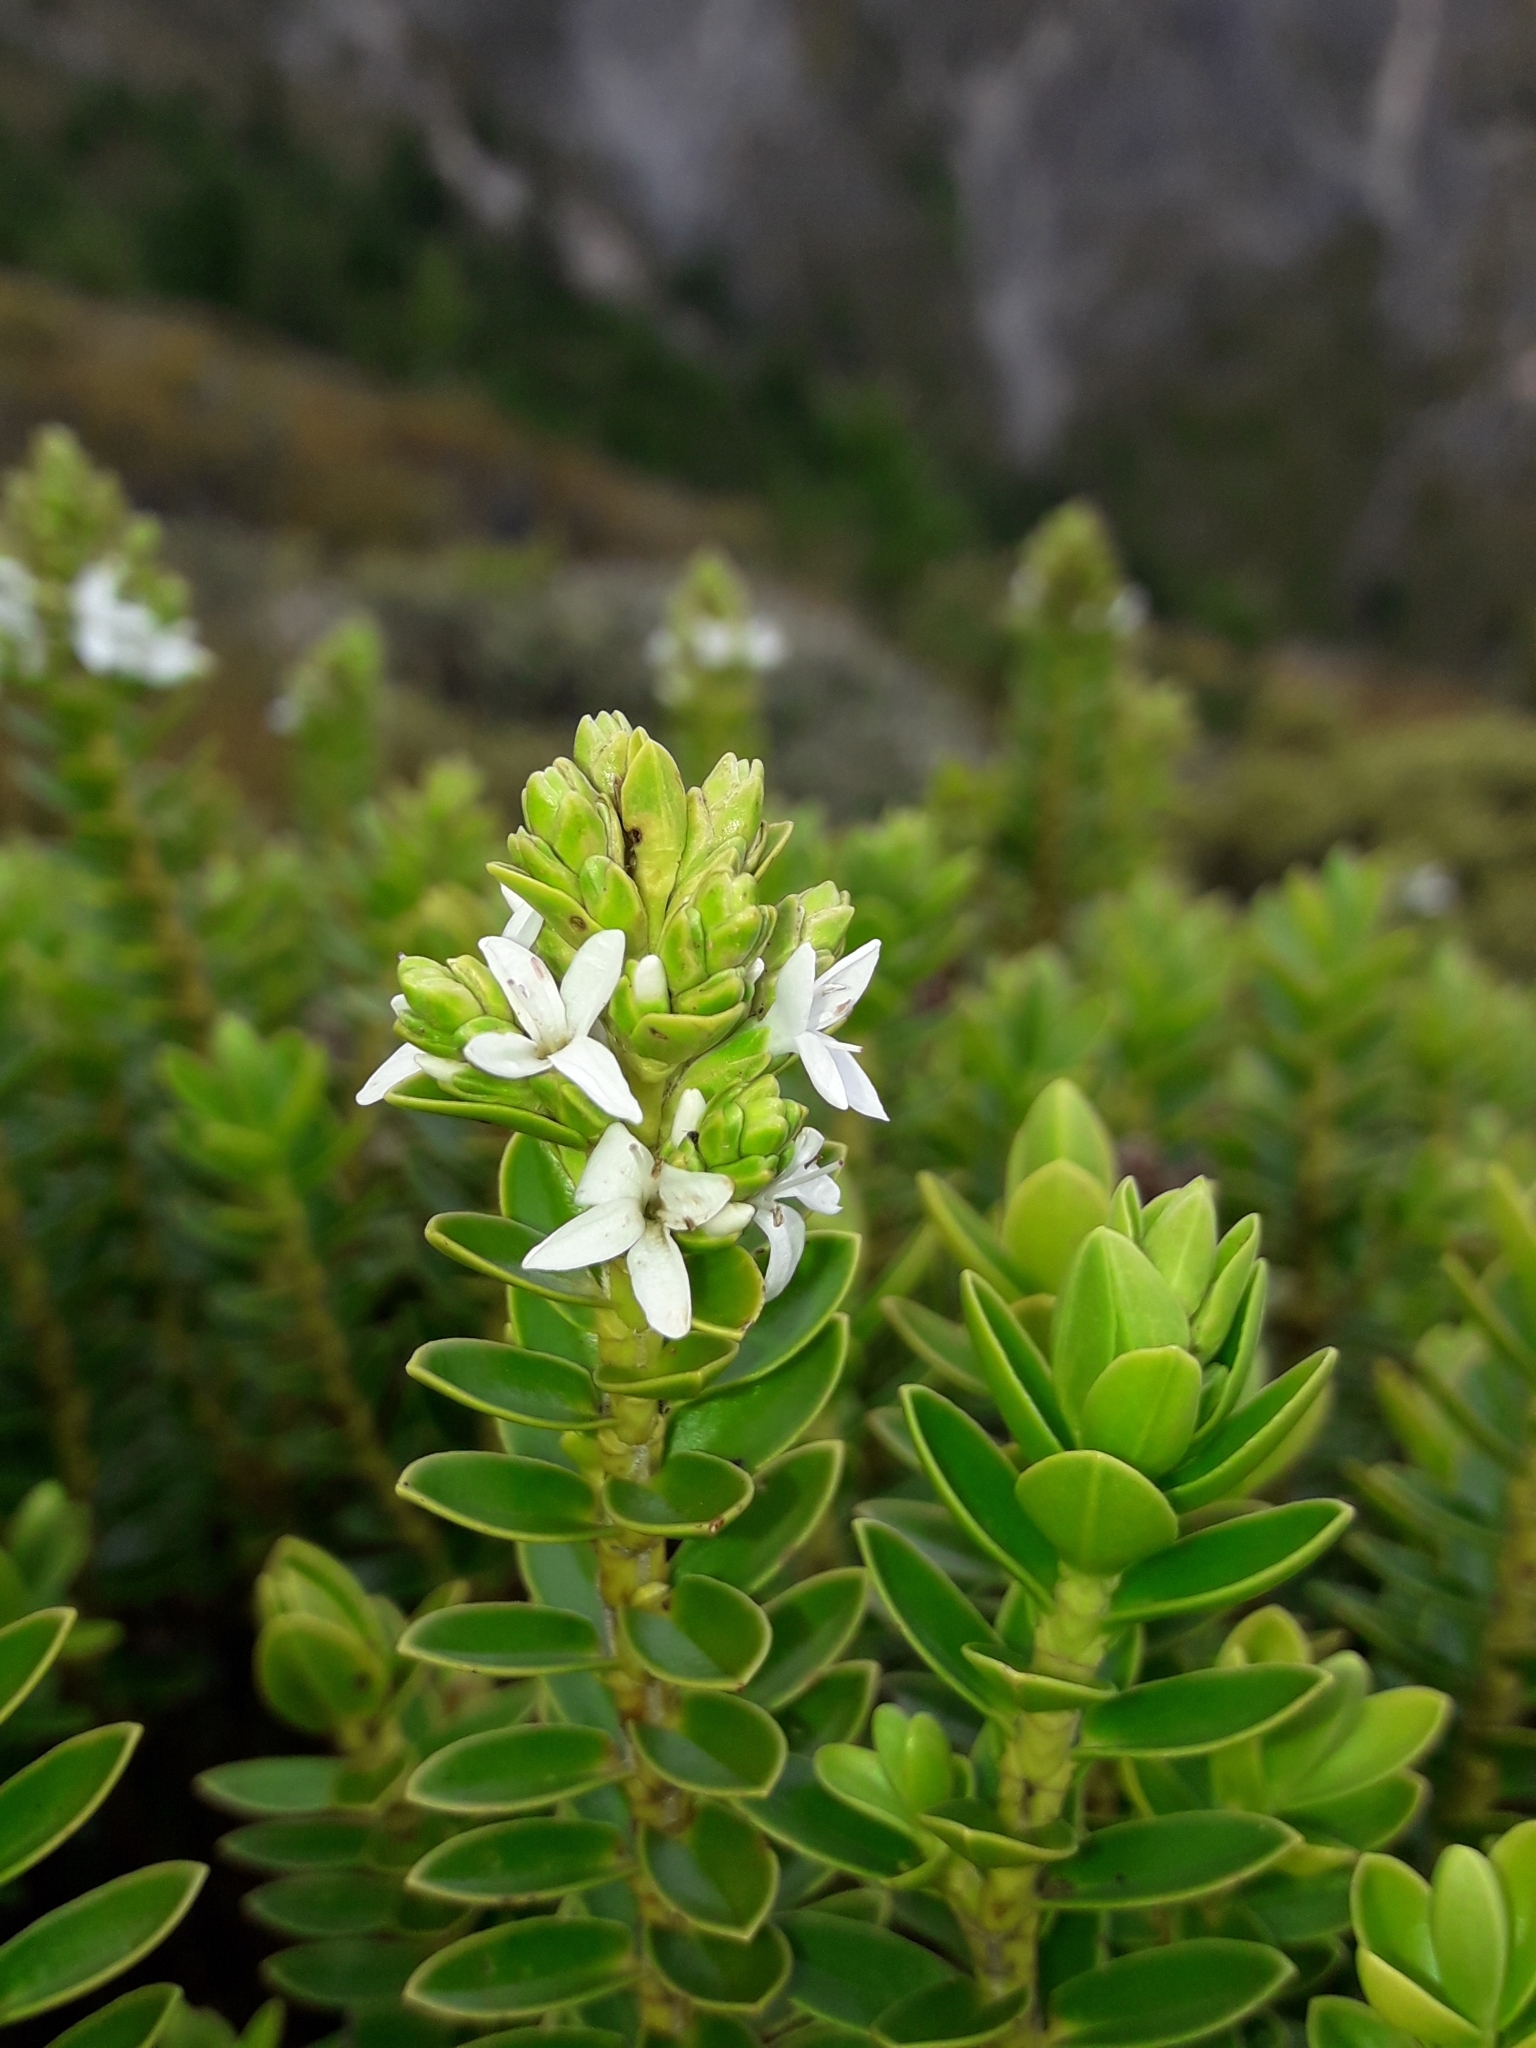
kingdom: Plantae
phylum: Tracheophyta
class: Magnoliopsida
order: Lamiales
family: Plantaginaceae
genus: Veronica
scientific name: Veronica odora
